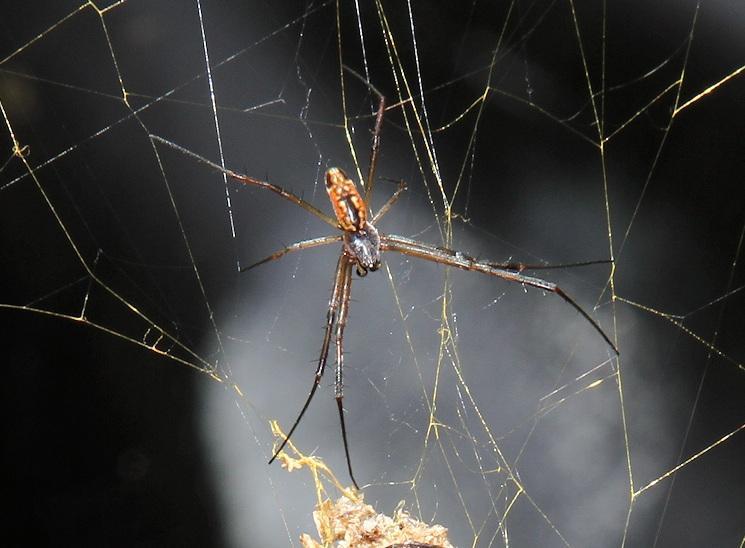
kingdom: Animalia
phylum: Arthropoda
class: Arachnida
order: Araneae
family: Araneidae
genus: Trichonephila
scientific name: Trichonephila senegalensis
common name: Banded golden orb weaver
